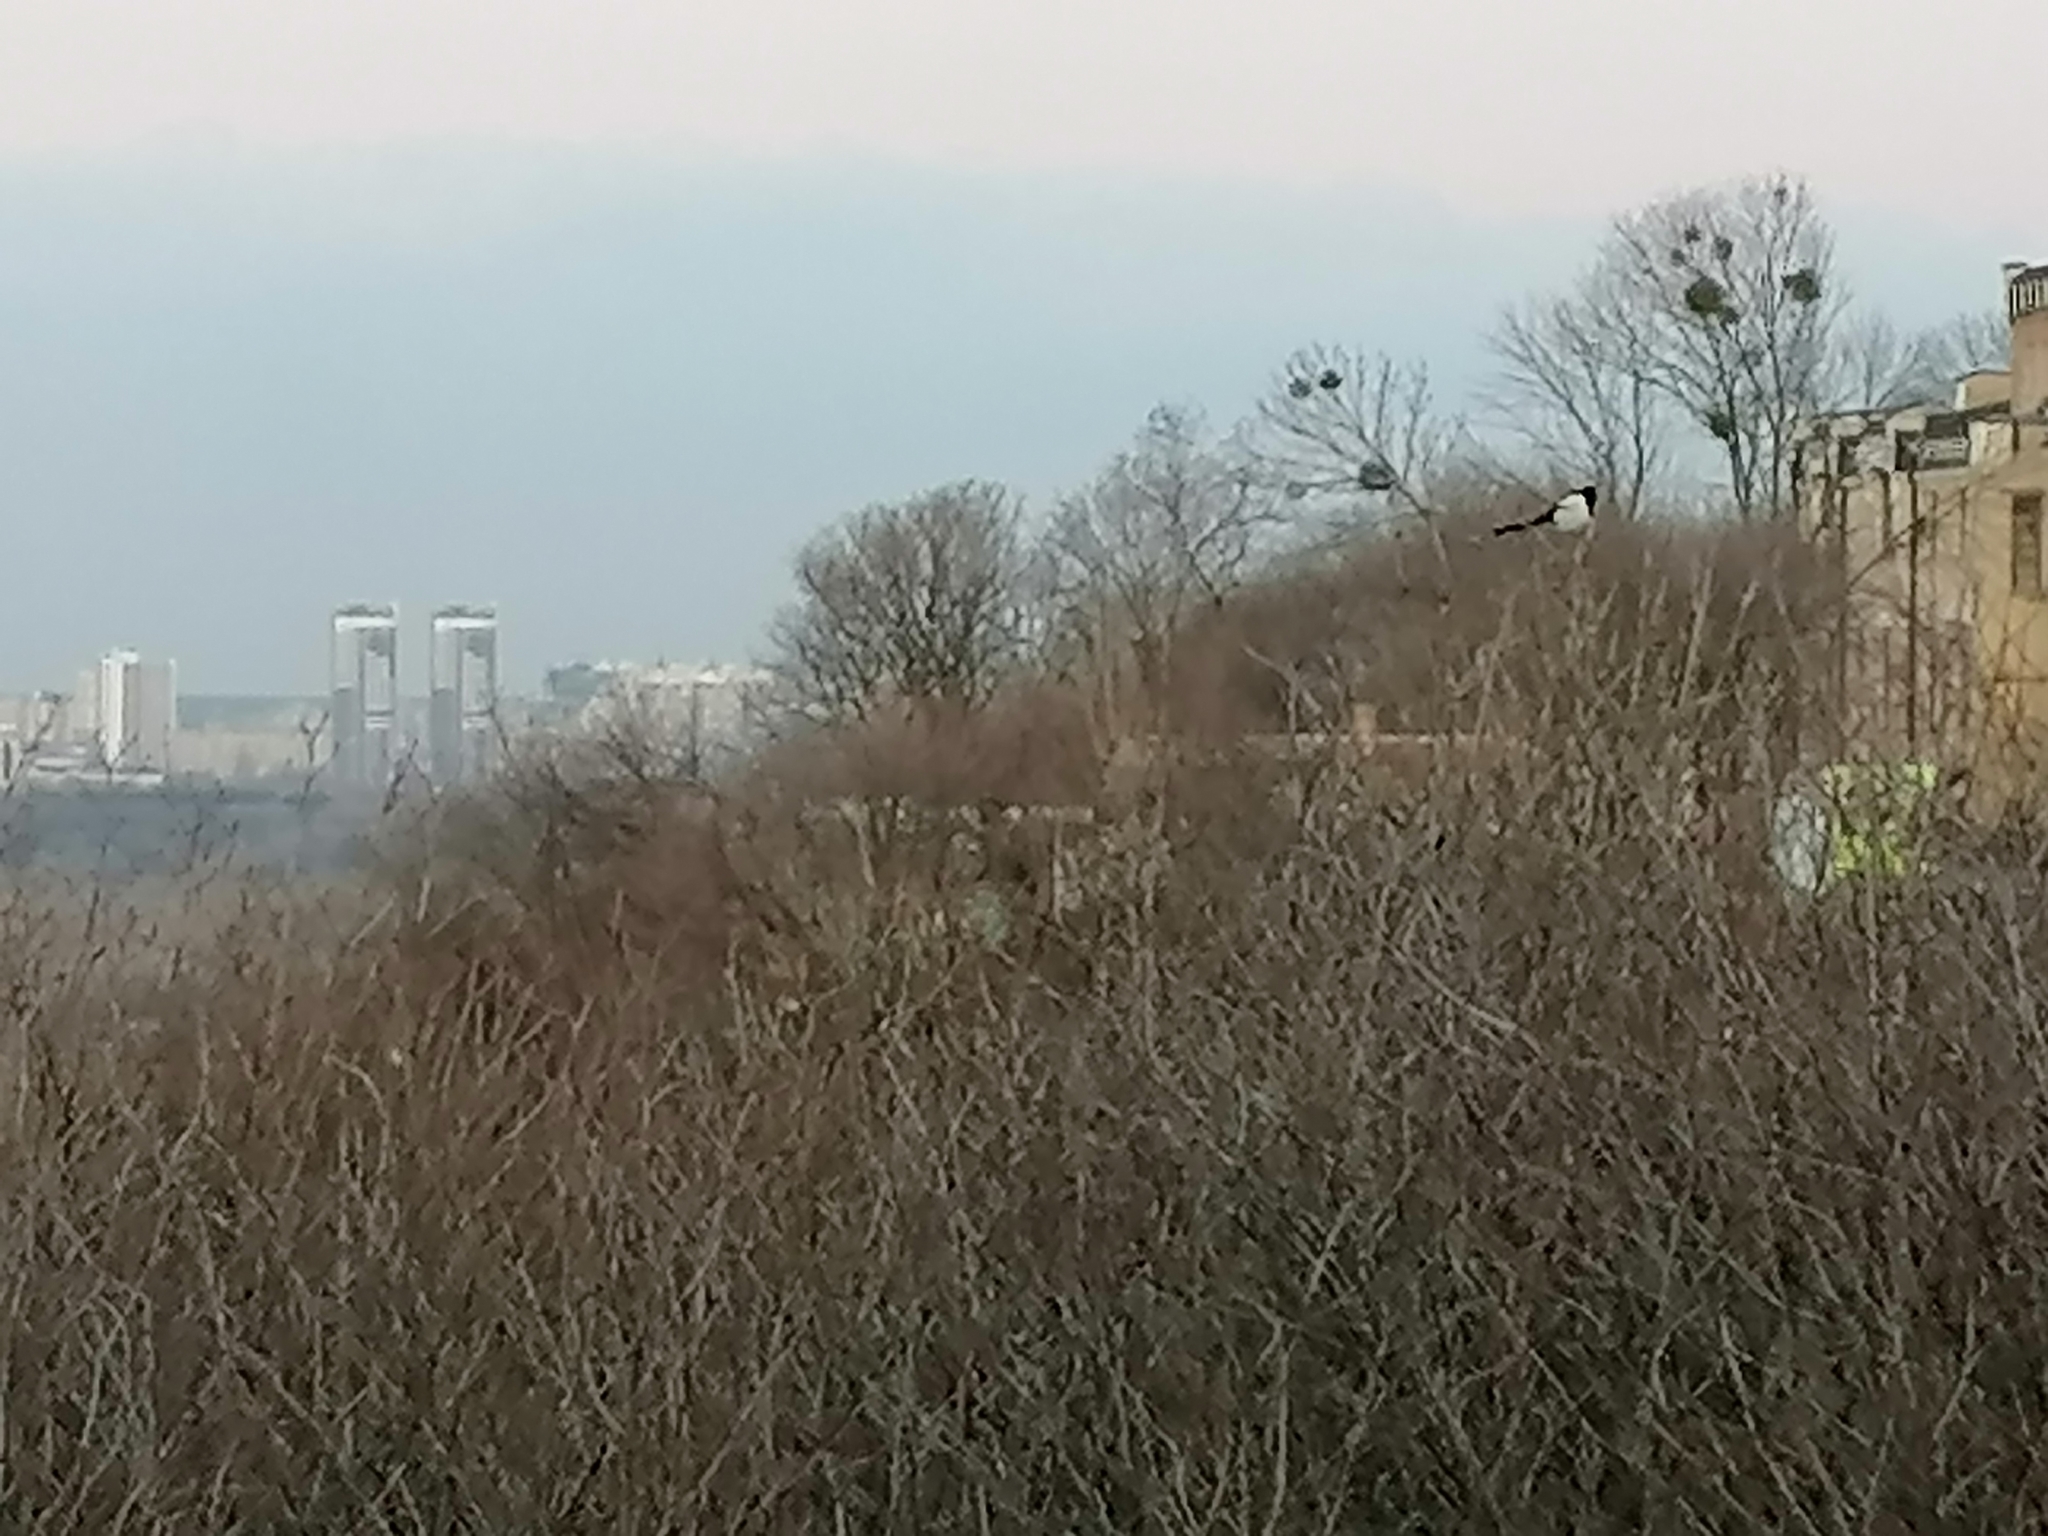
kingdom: Animalia
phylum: Chordata
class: Aves
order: Passeriformes
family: Corvidae
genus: Pica
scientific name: Pica pica
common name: Eurasian magpie
